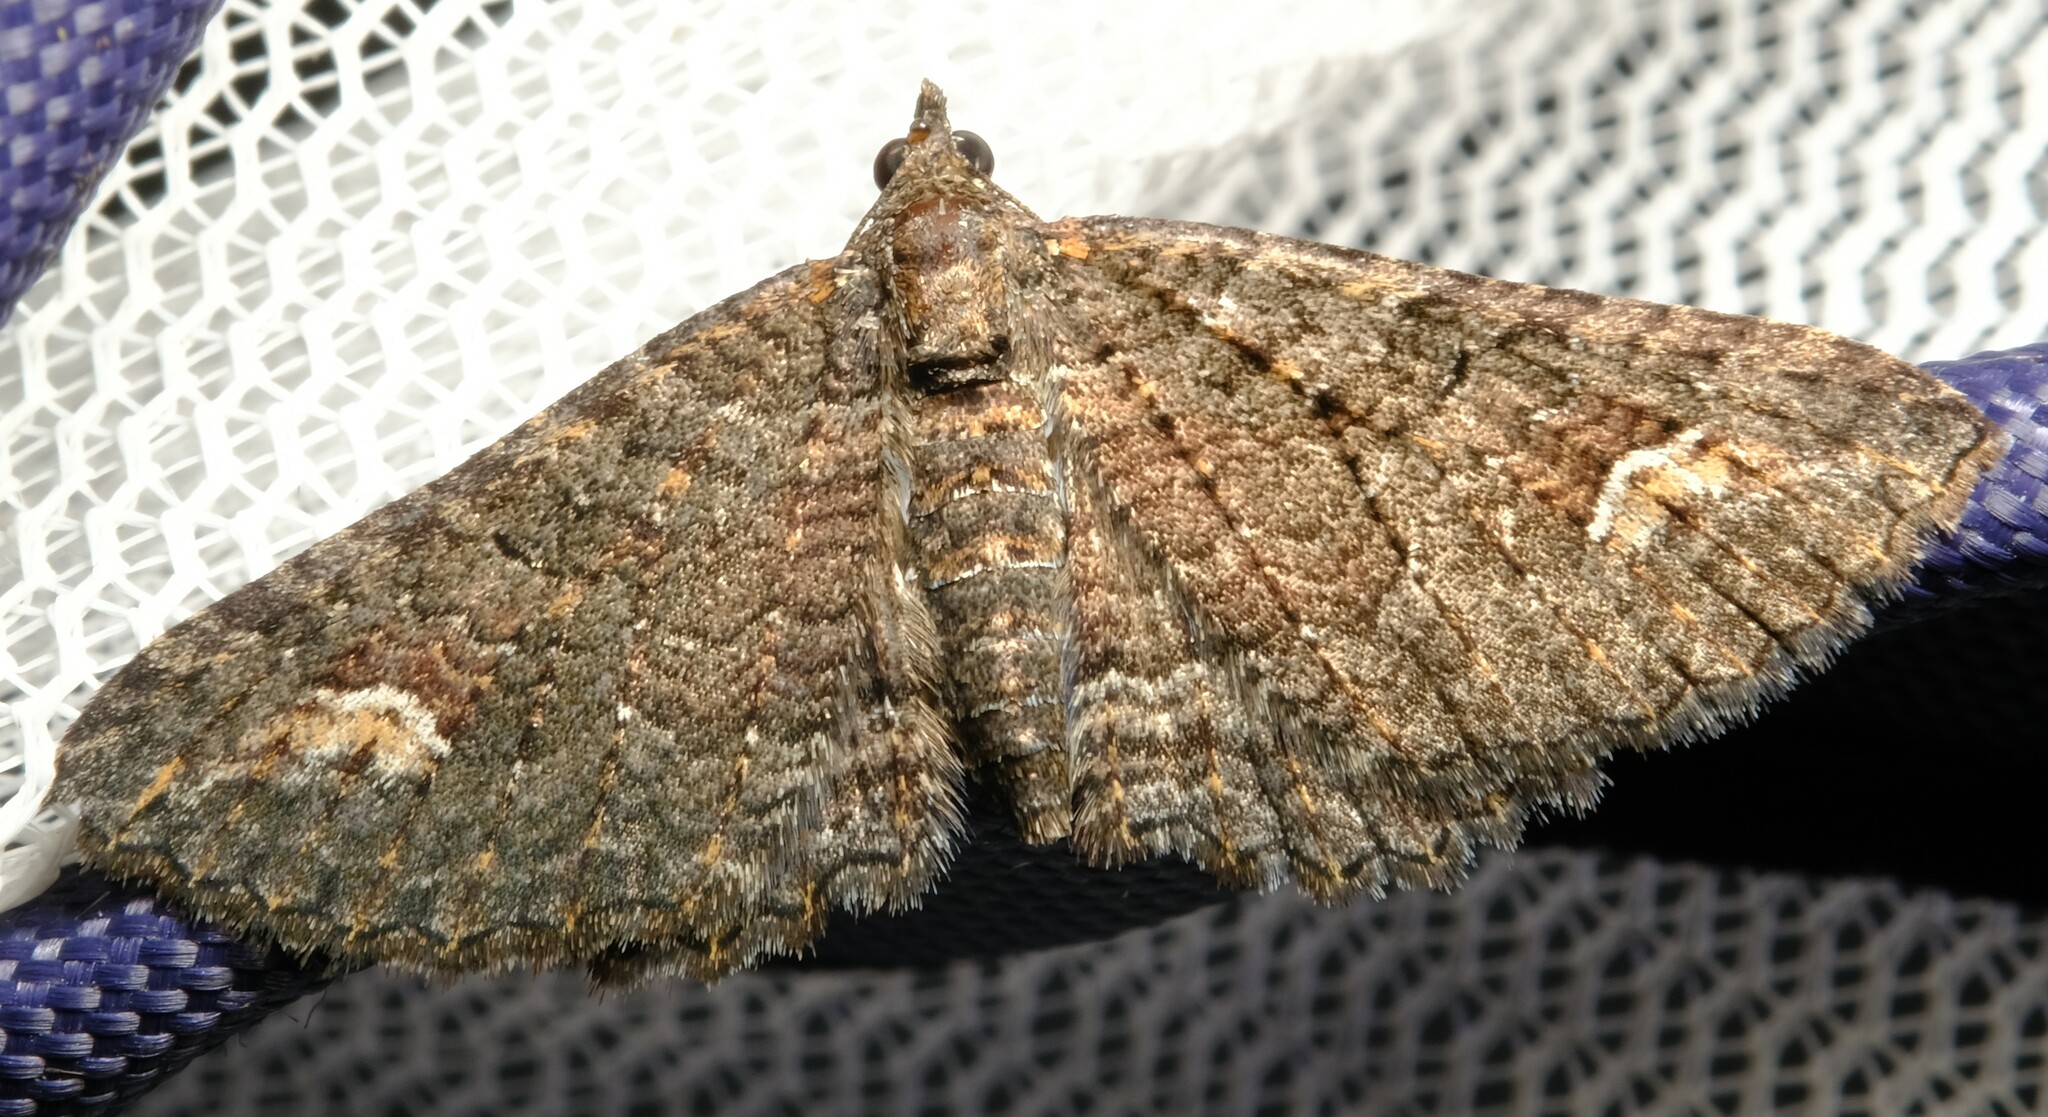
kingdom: Animalia
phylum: Arthropoda
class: Insecta
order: Lepidoptera
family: Geometridae
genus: Eupithecia
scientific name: Eupithecia Eucymatoge scotodes
